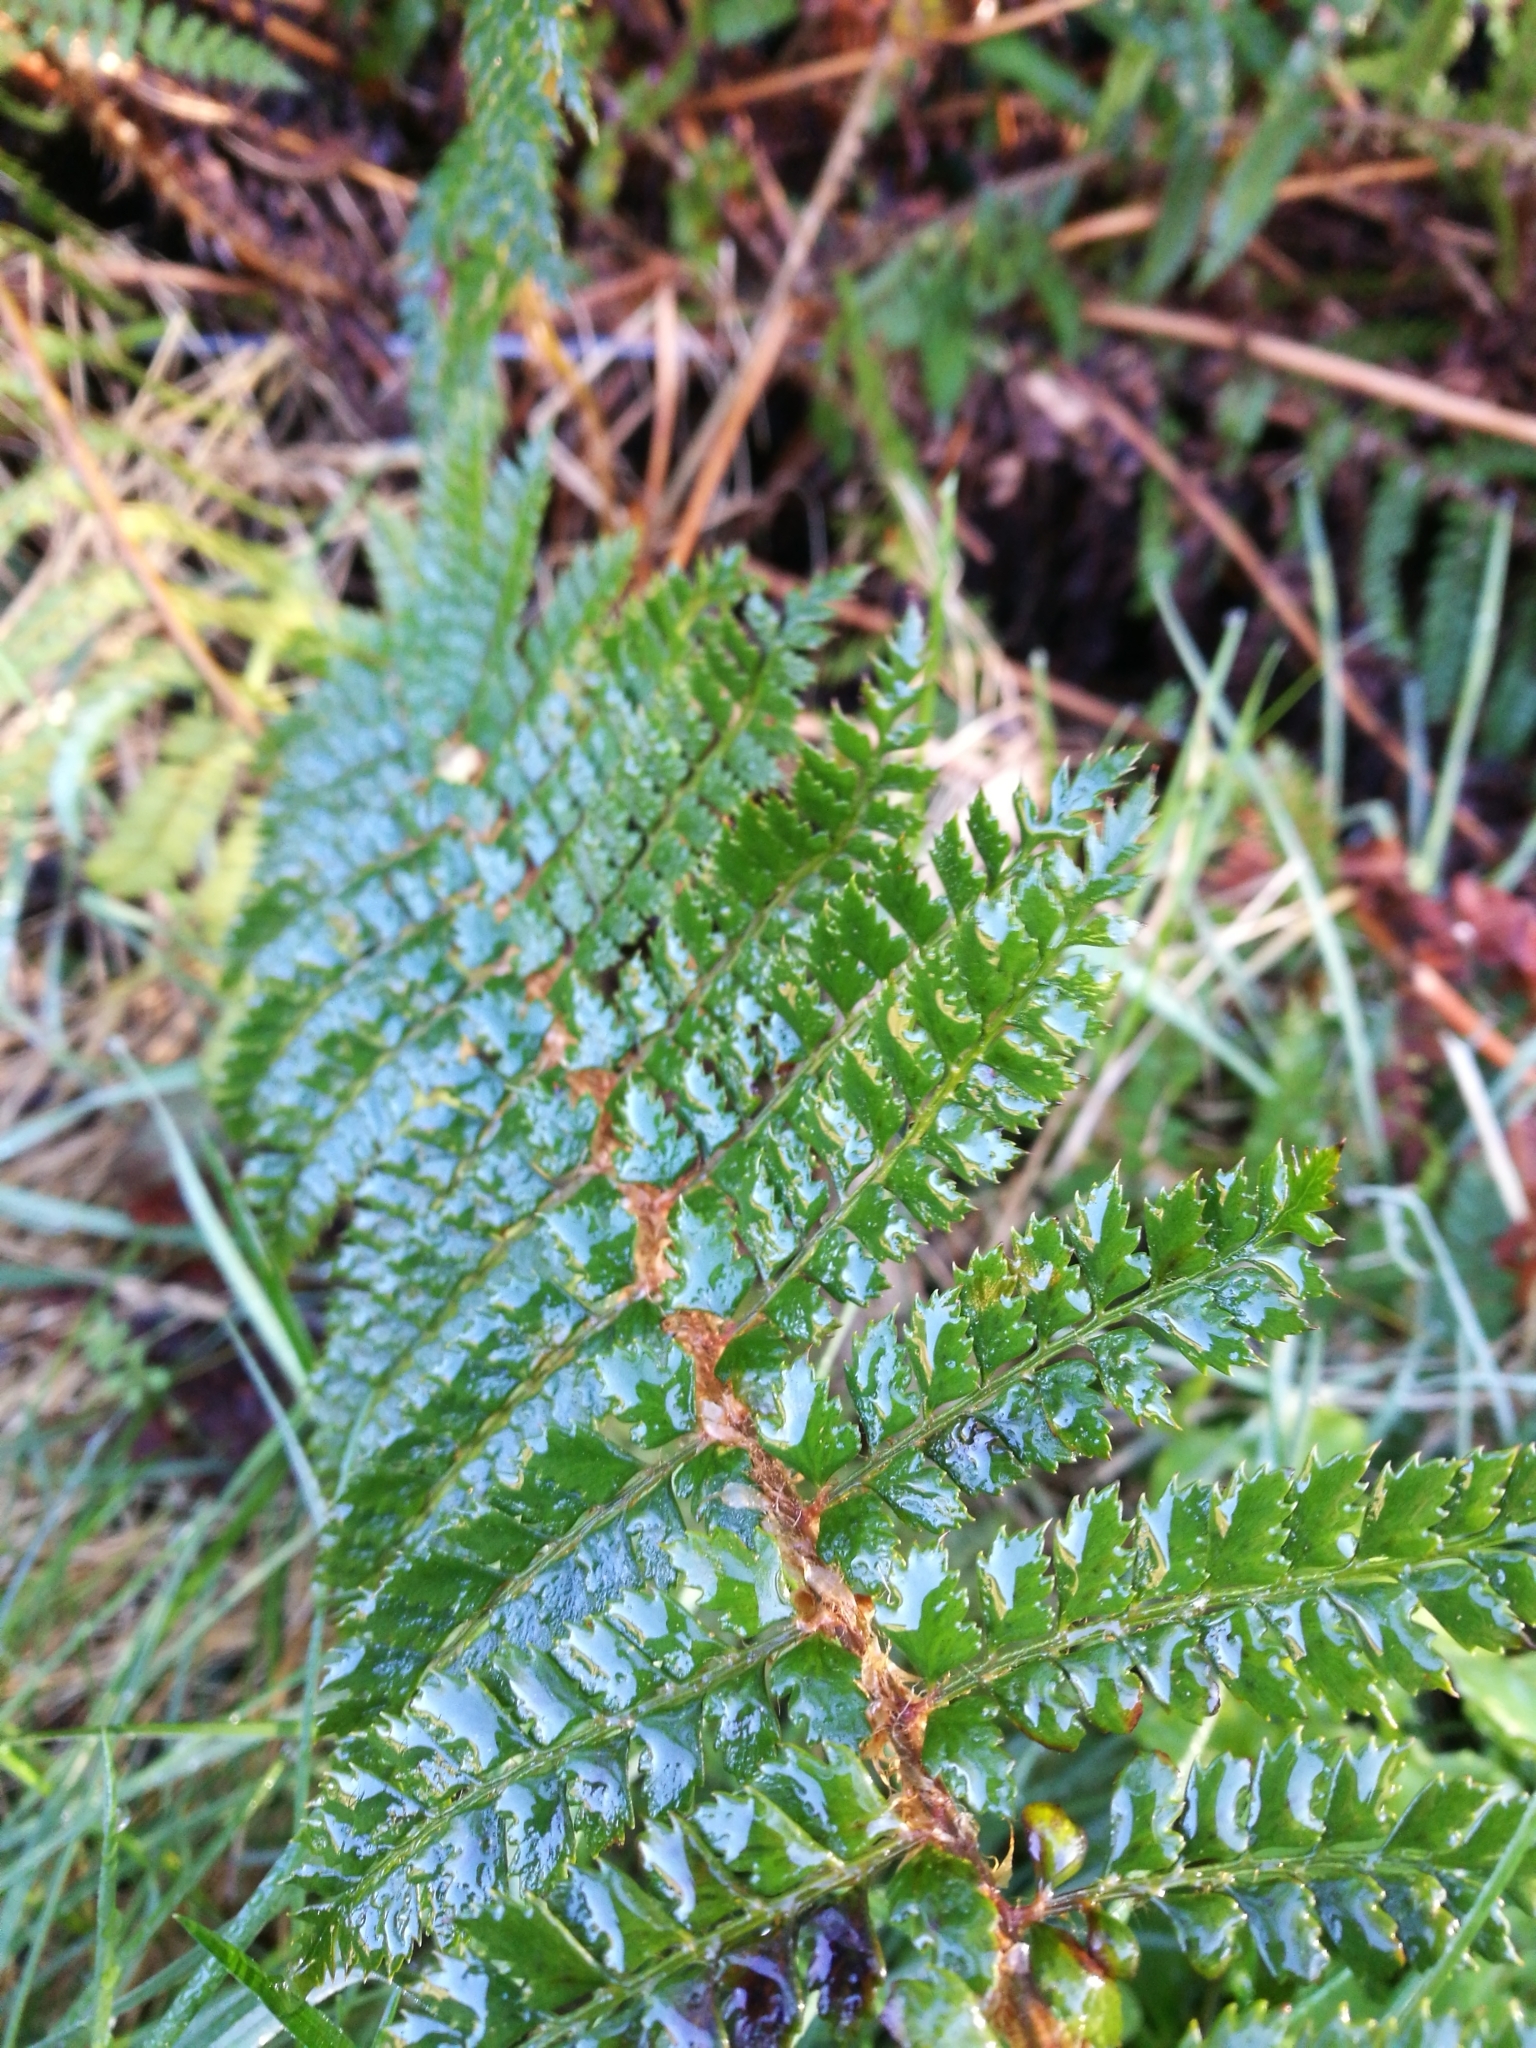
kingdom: Plantae
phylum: Tracheophyta
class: Polypodiopsida
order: Polypodiales
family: Dryopteridaceae
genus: Polystichum
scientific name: Polystichum vestitum
